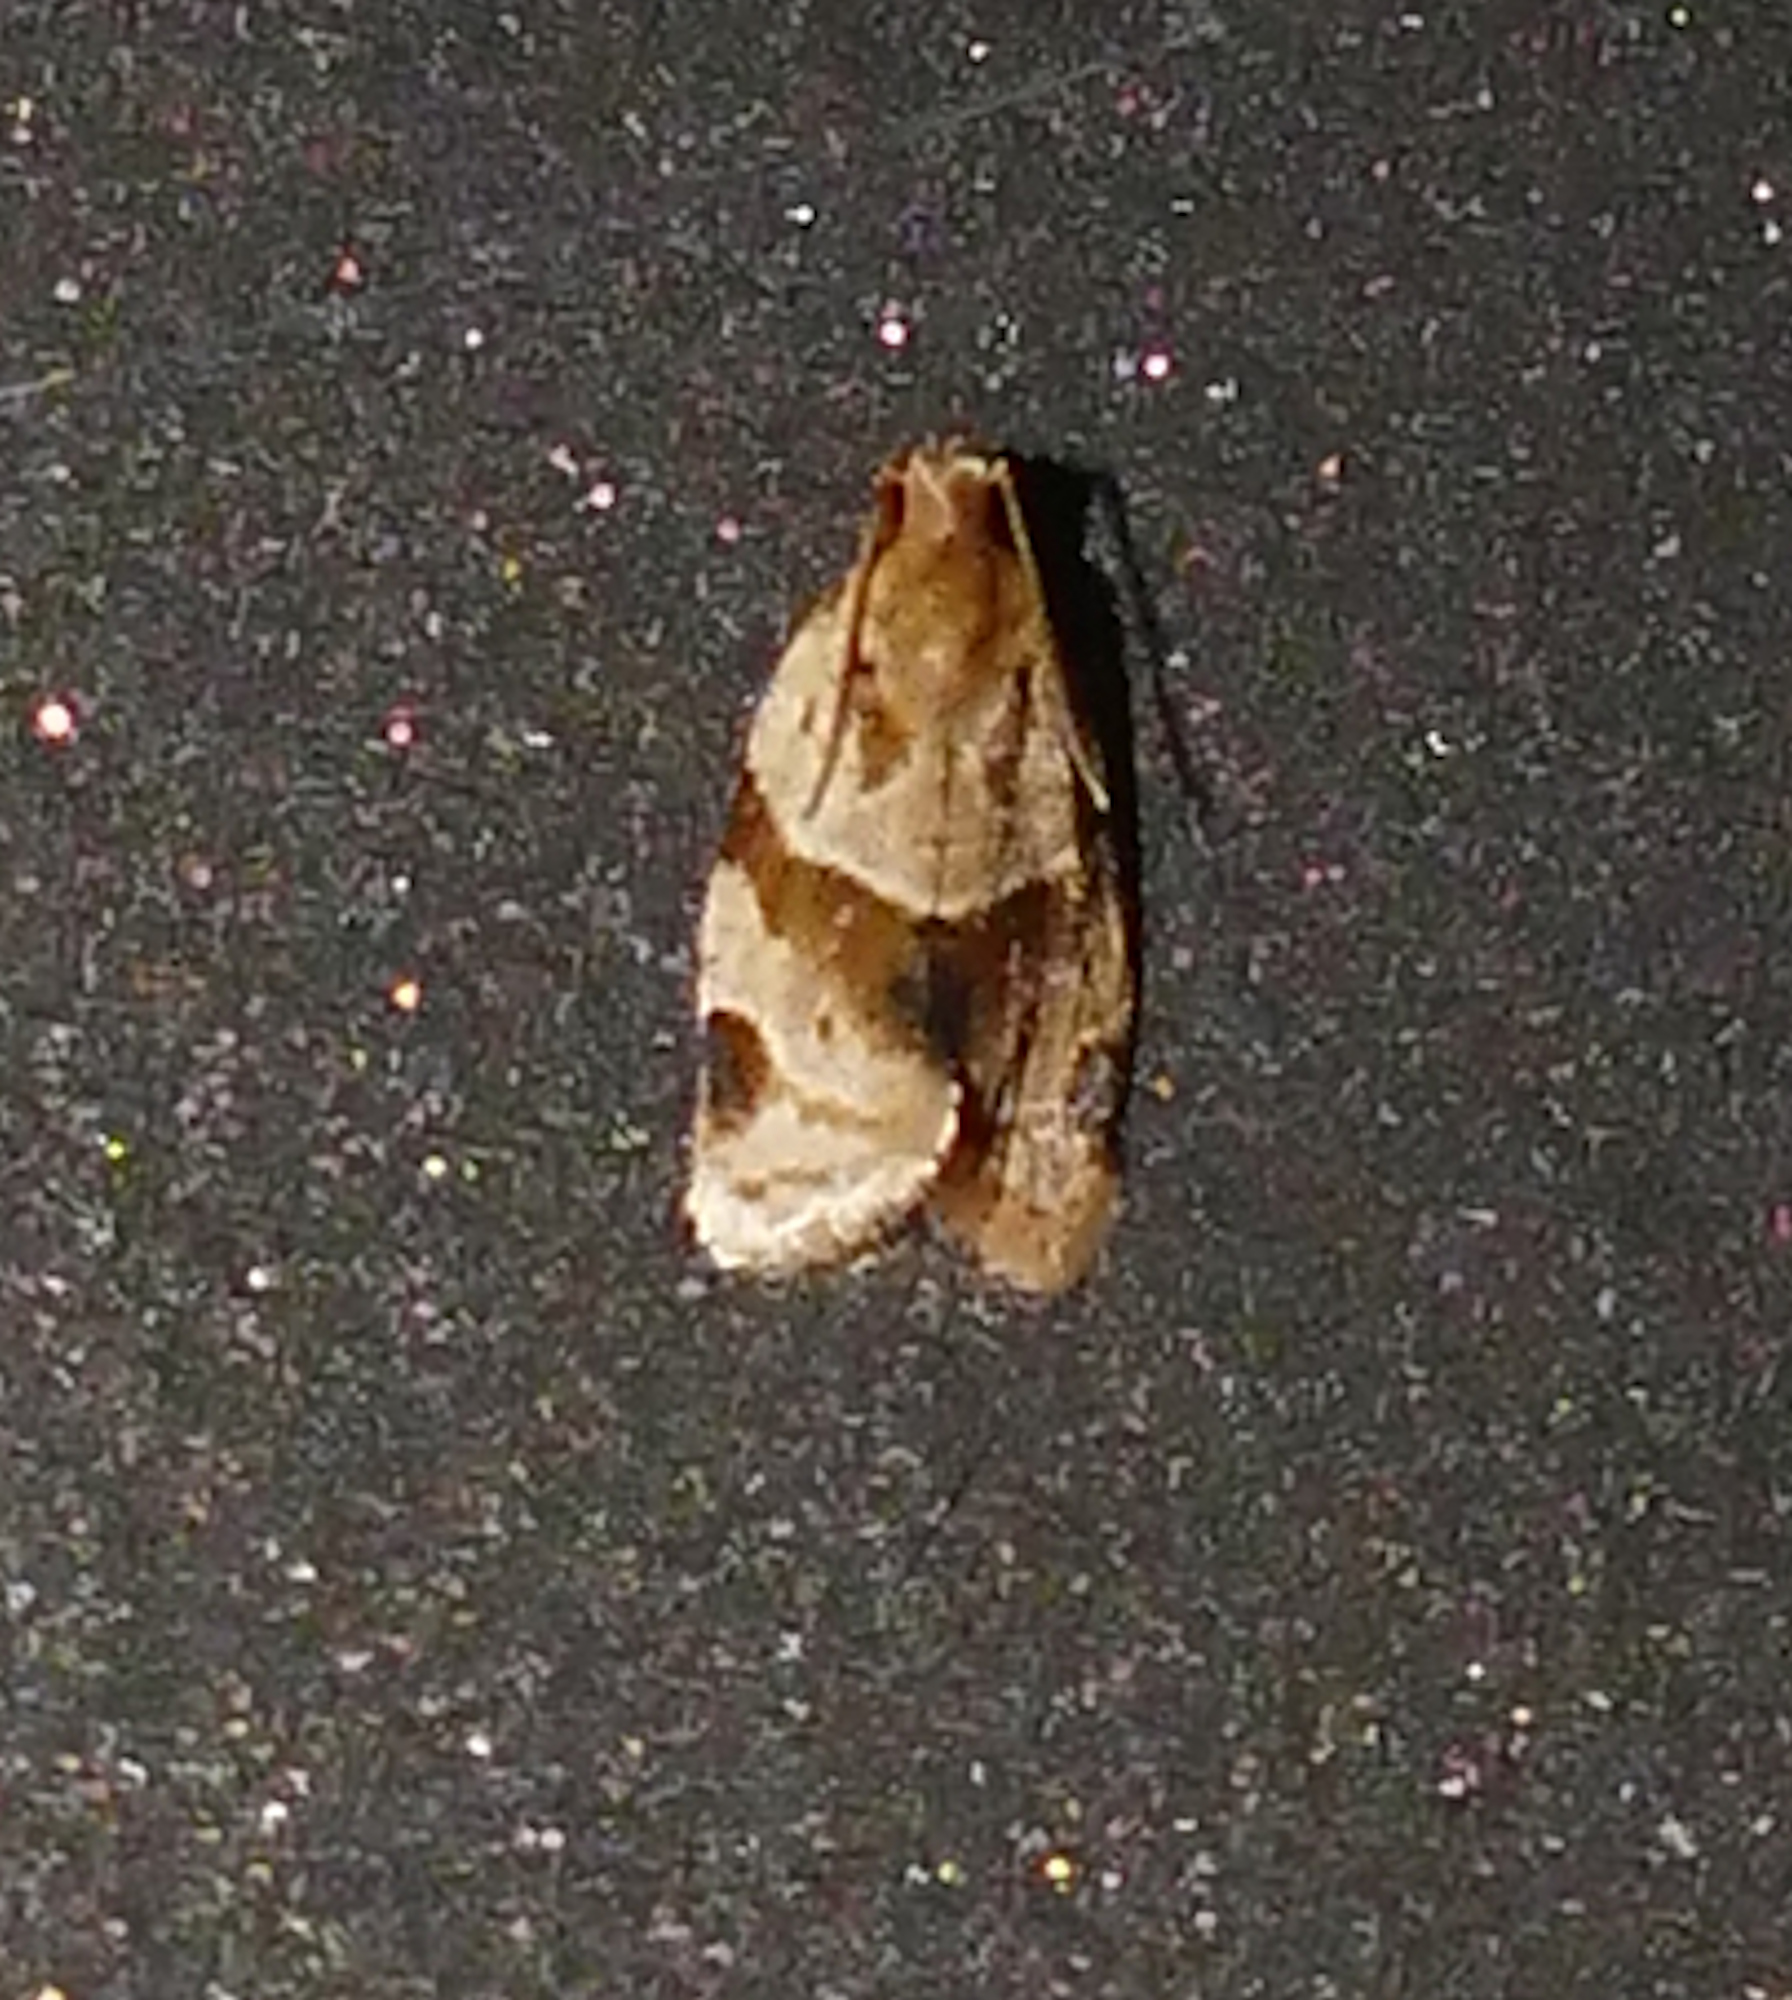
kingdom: Animalia
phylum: Arthropoda
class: Insecta
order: Lepidoptera
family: Tortricidae
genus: Clepsis
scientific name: Clepsis peritana
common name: Garden tortrix
